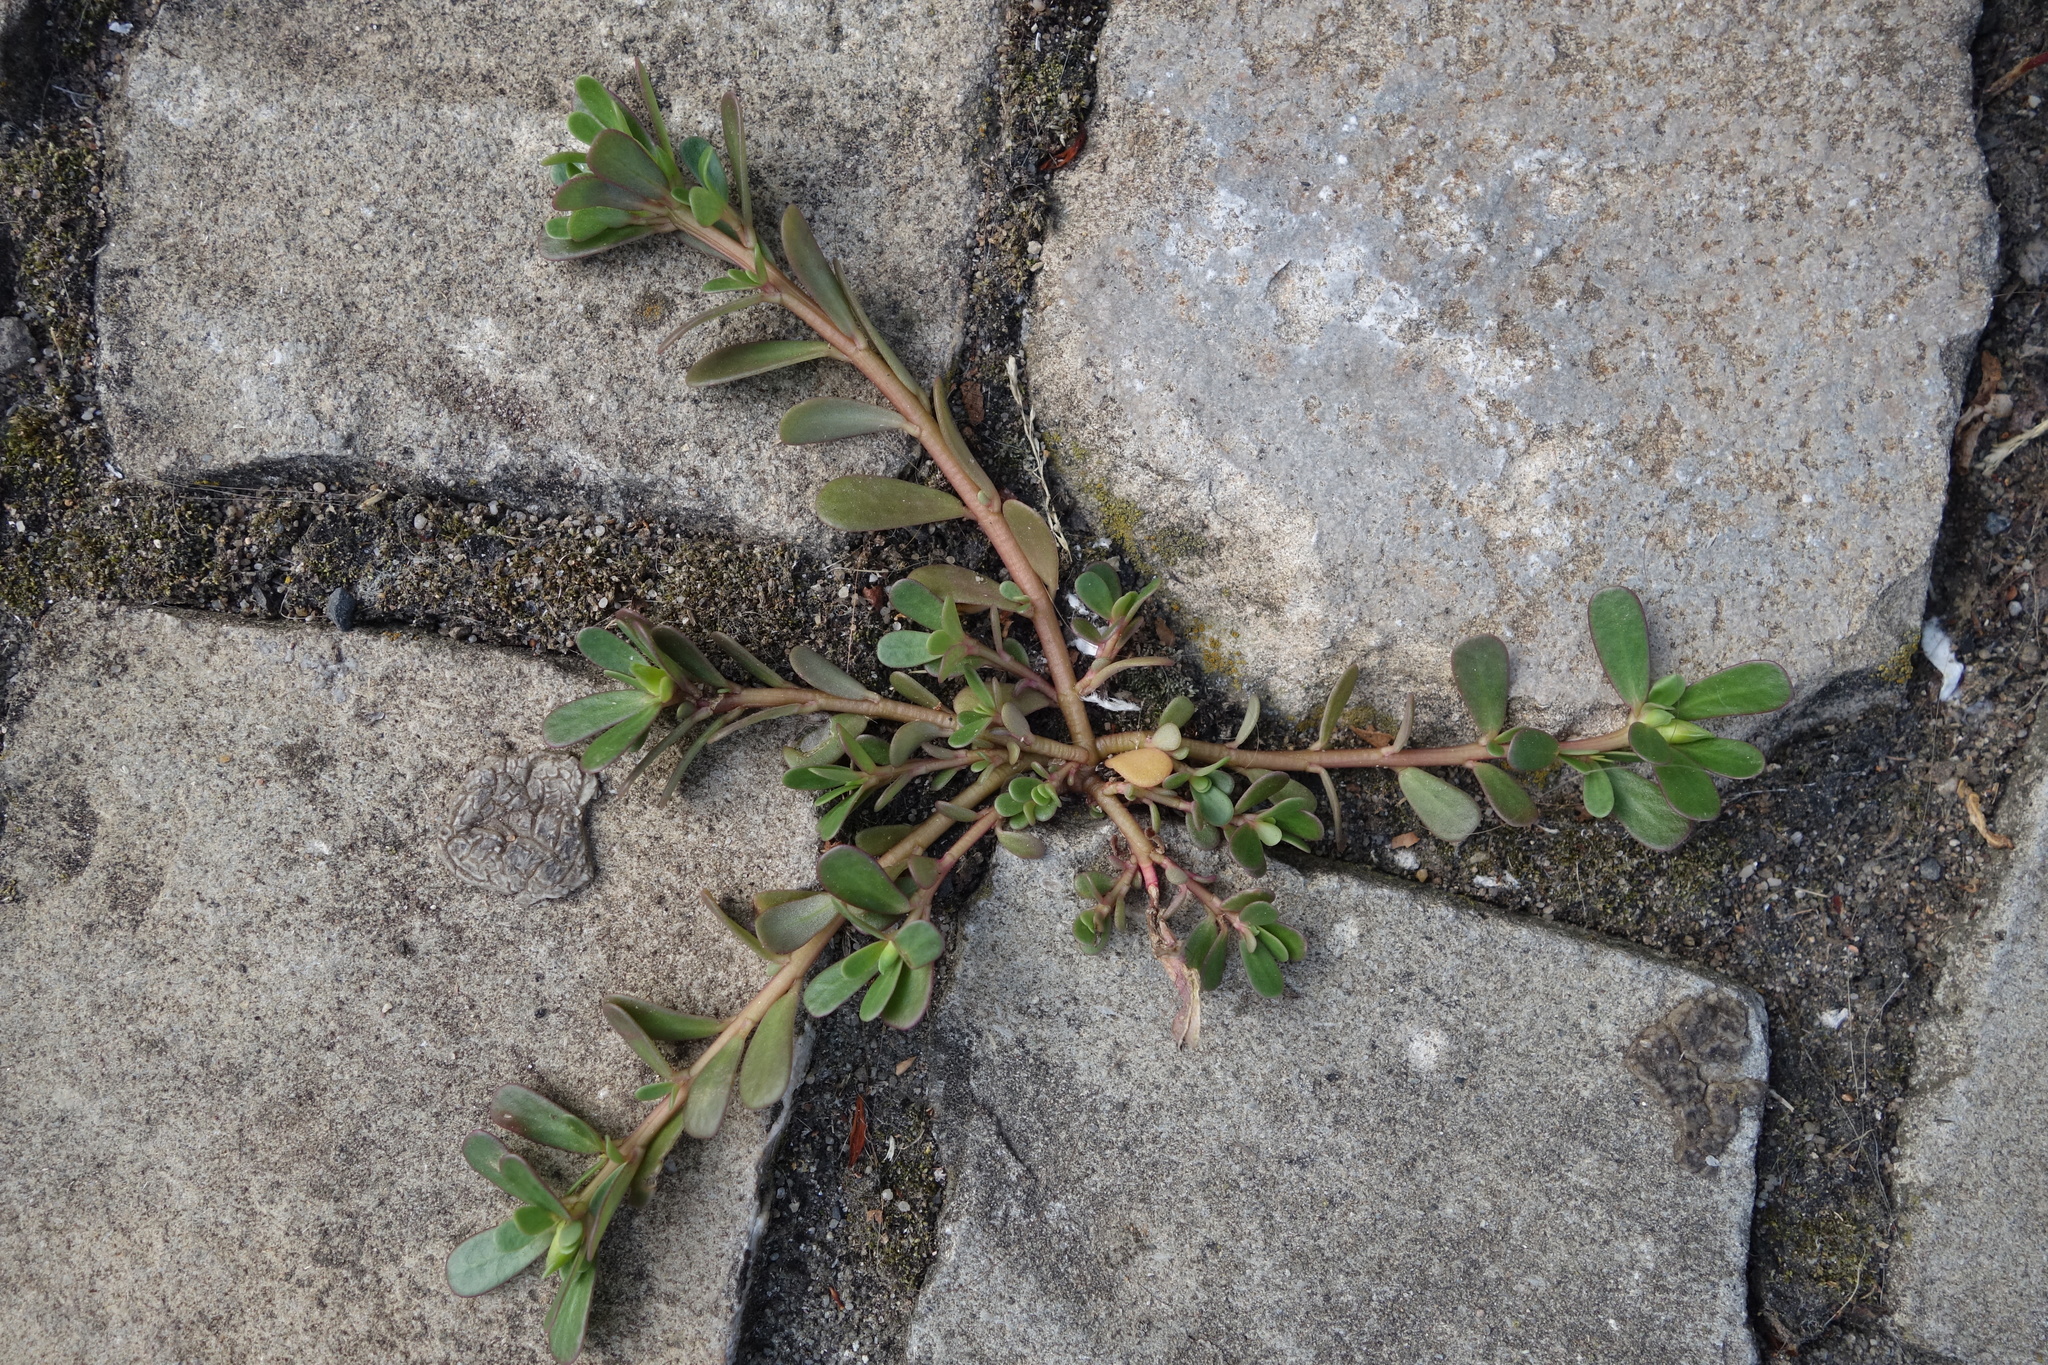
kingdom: Plantae
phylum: Tracheophyta
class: Magnoliopsida
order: Caryophyllales
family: Portulacaceae
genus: Portulaca
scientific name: Portulaca oleracea
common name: Common purslane
